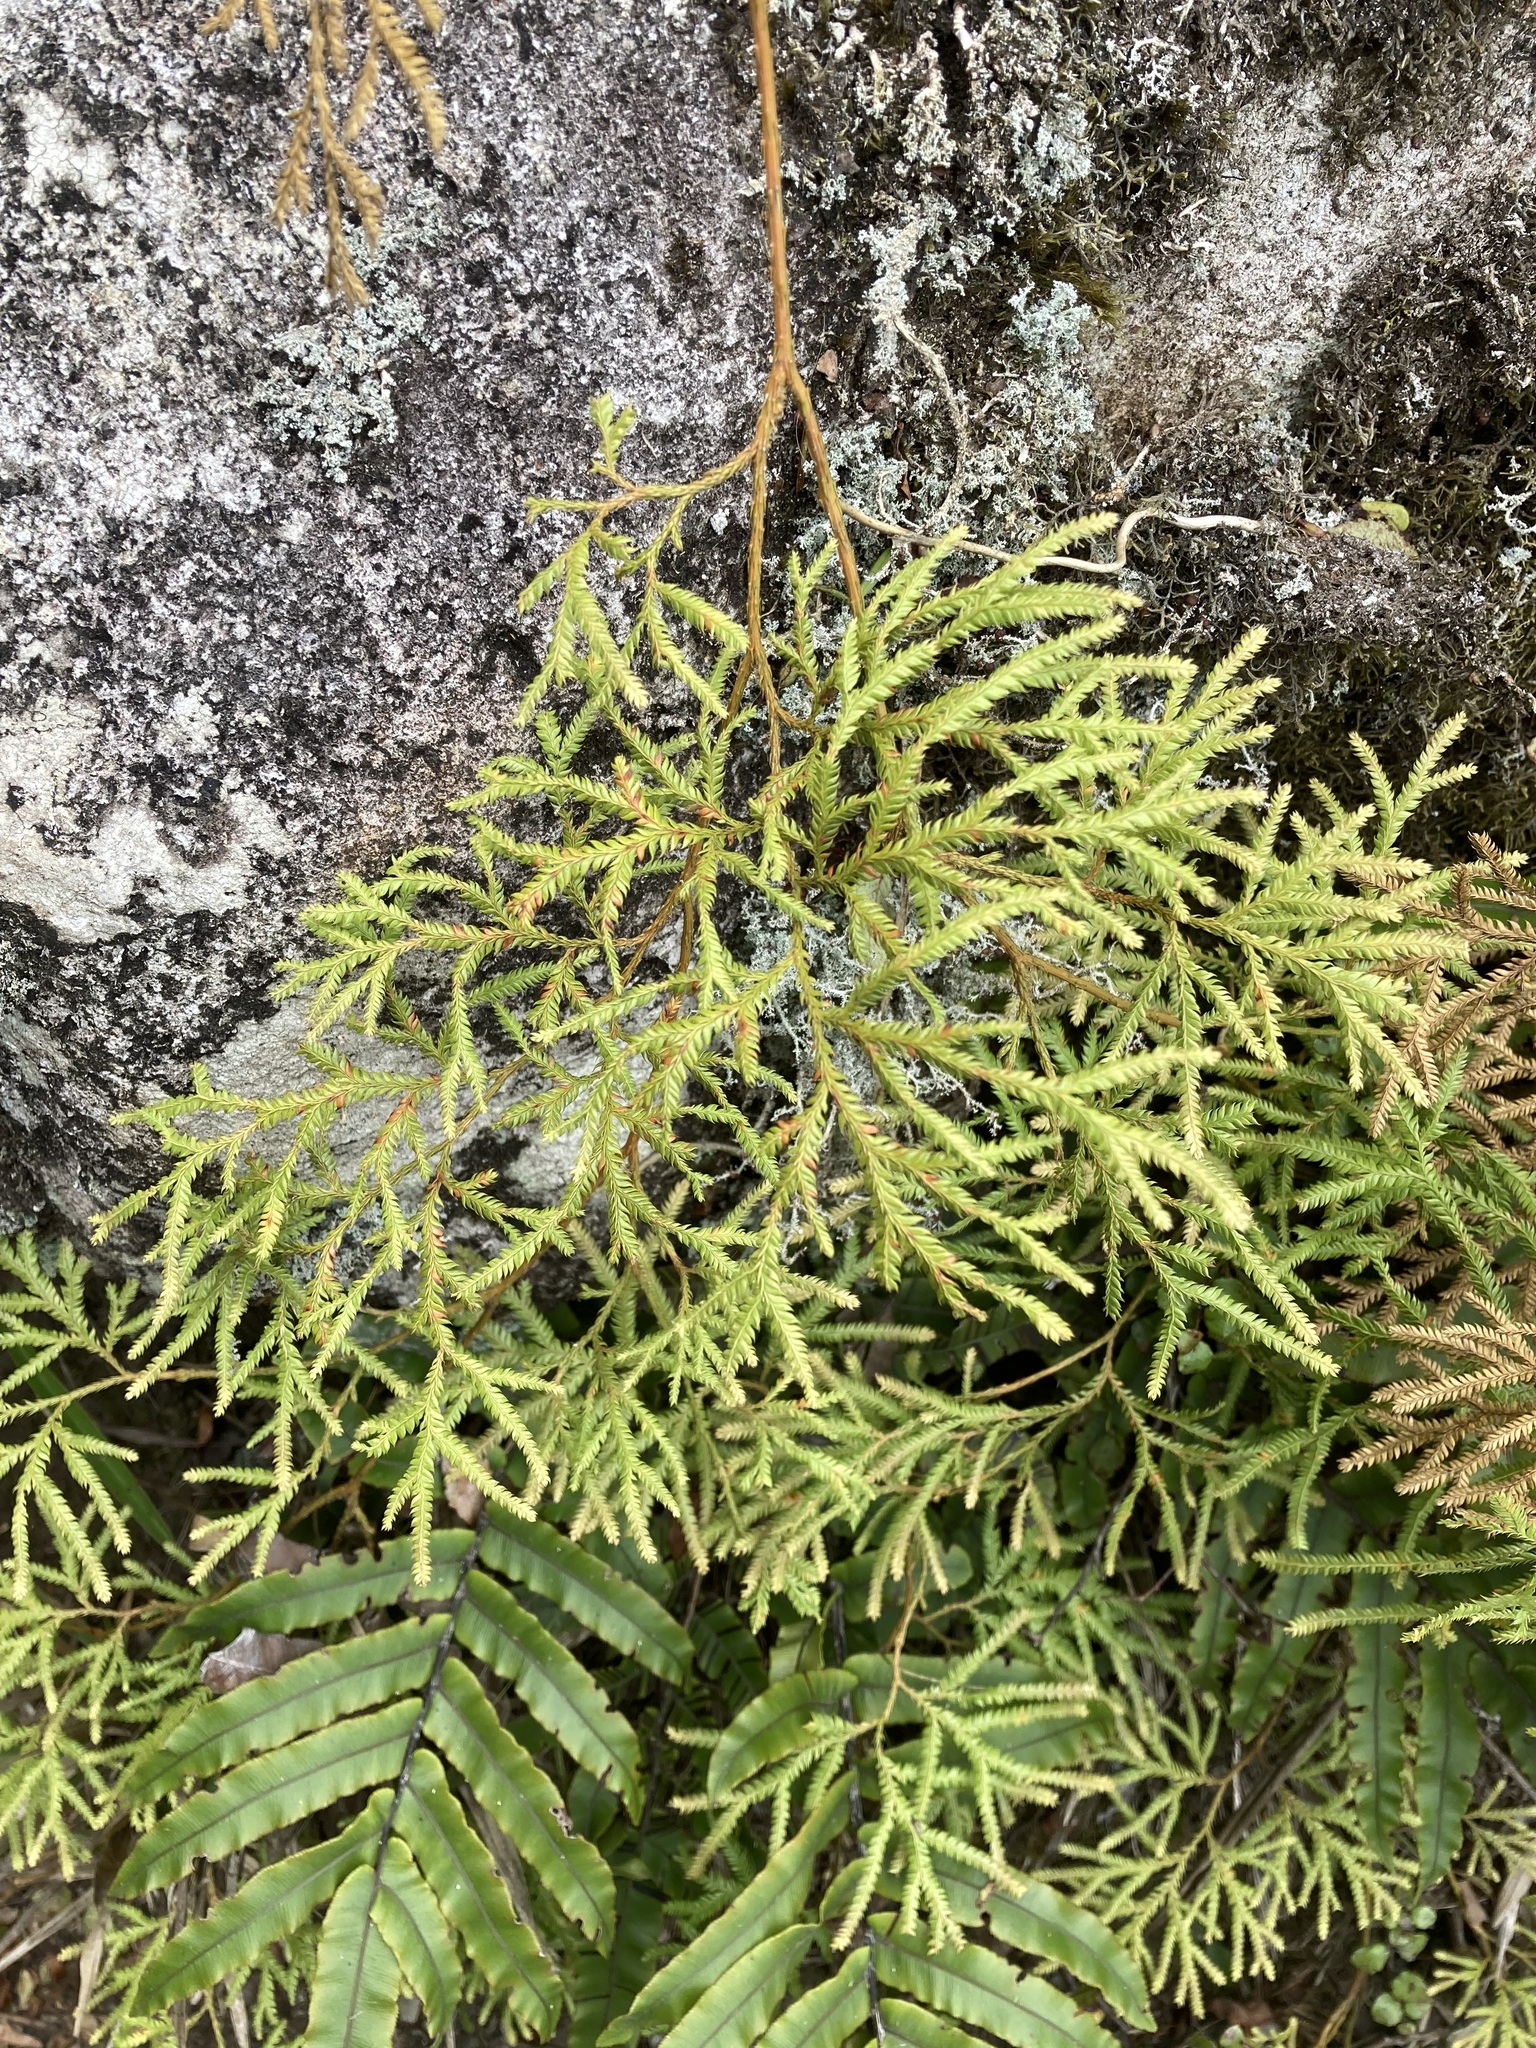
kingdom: Plantae
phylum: Tracheophyta
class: Lycopodiopsida
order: Lycopodiales
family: Lycopodiaceae
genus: Lycopodium
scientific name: Lycopodium volubile
